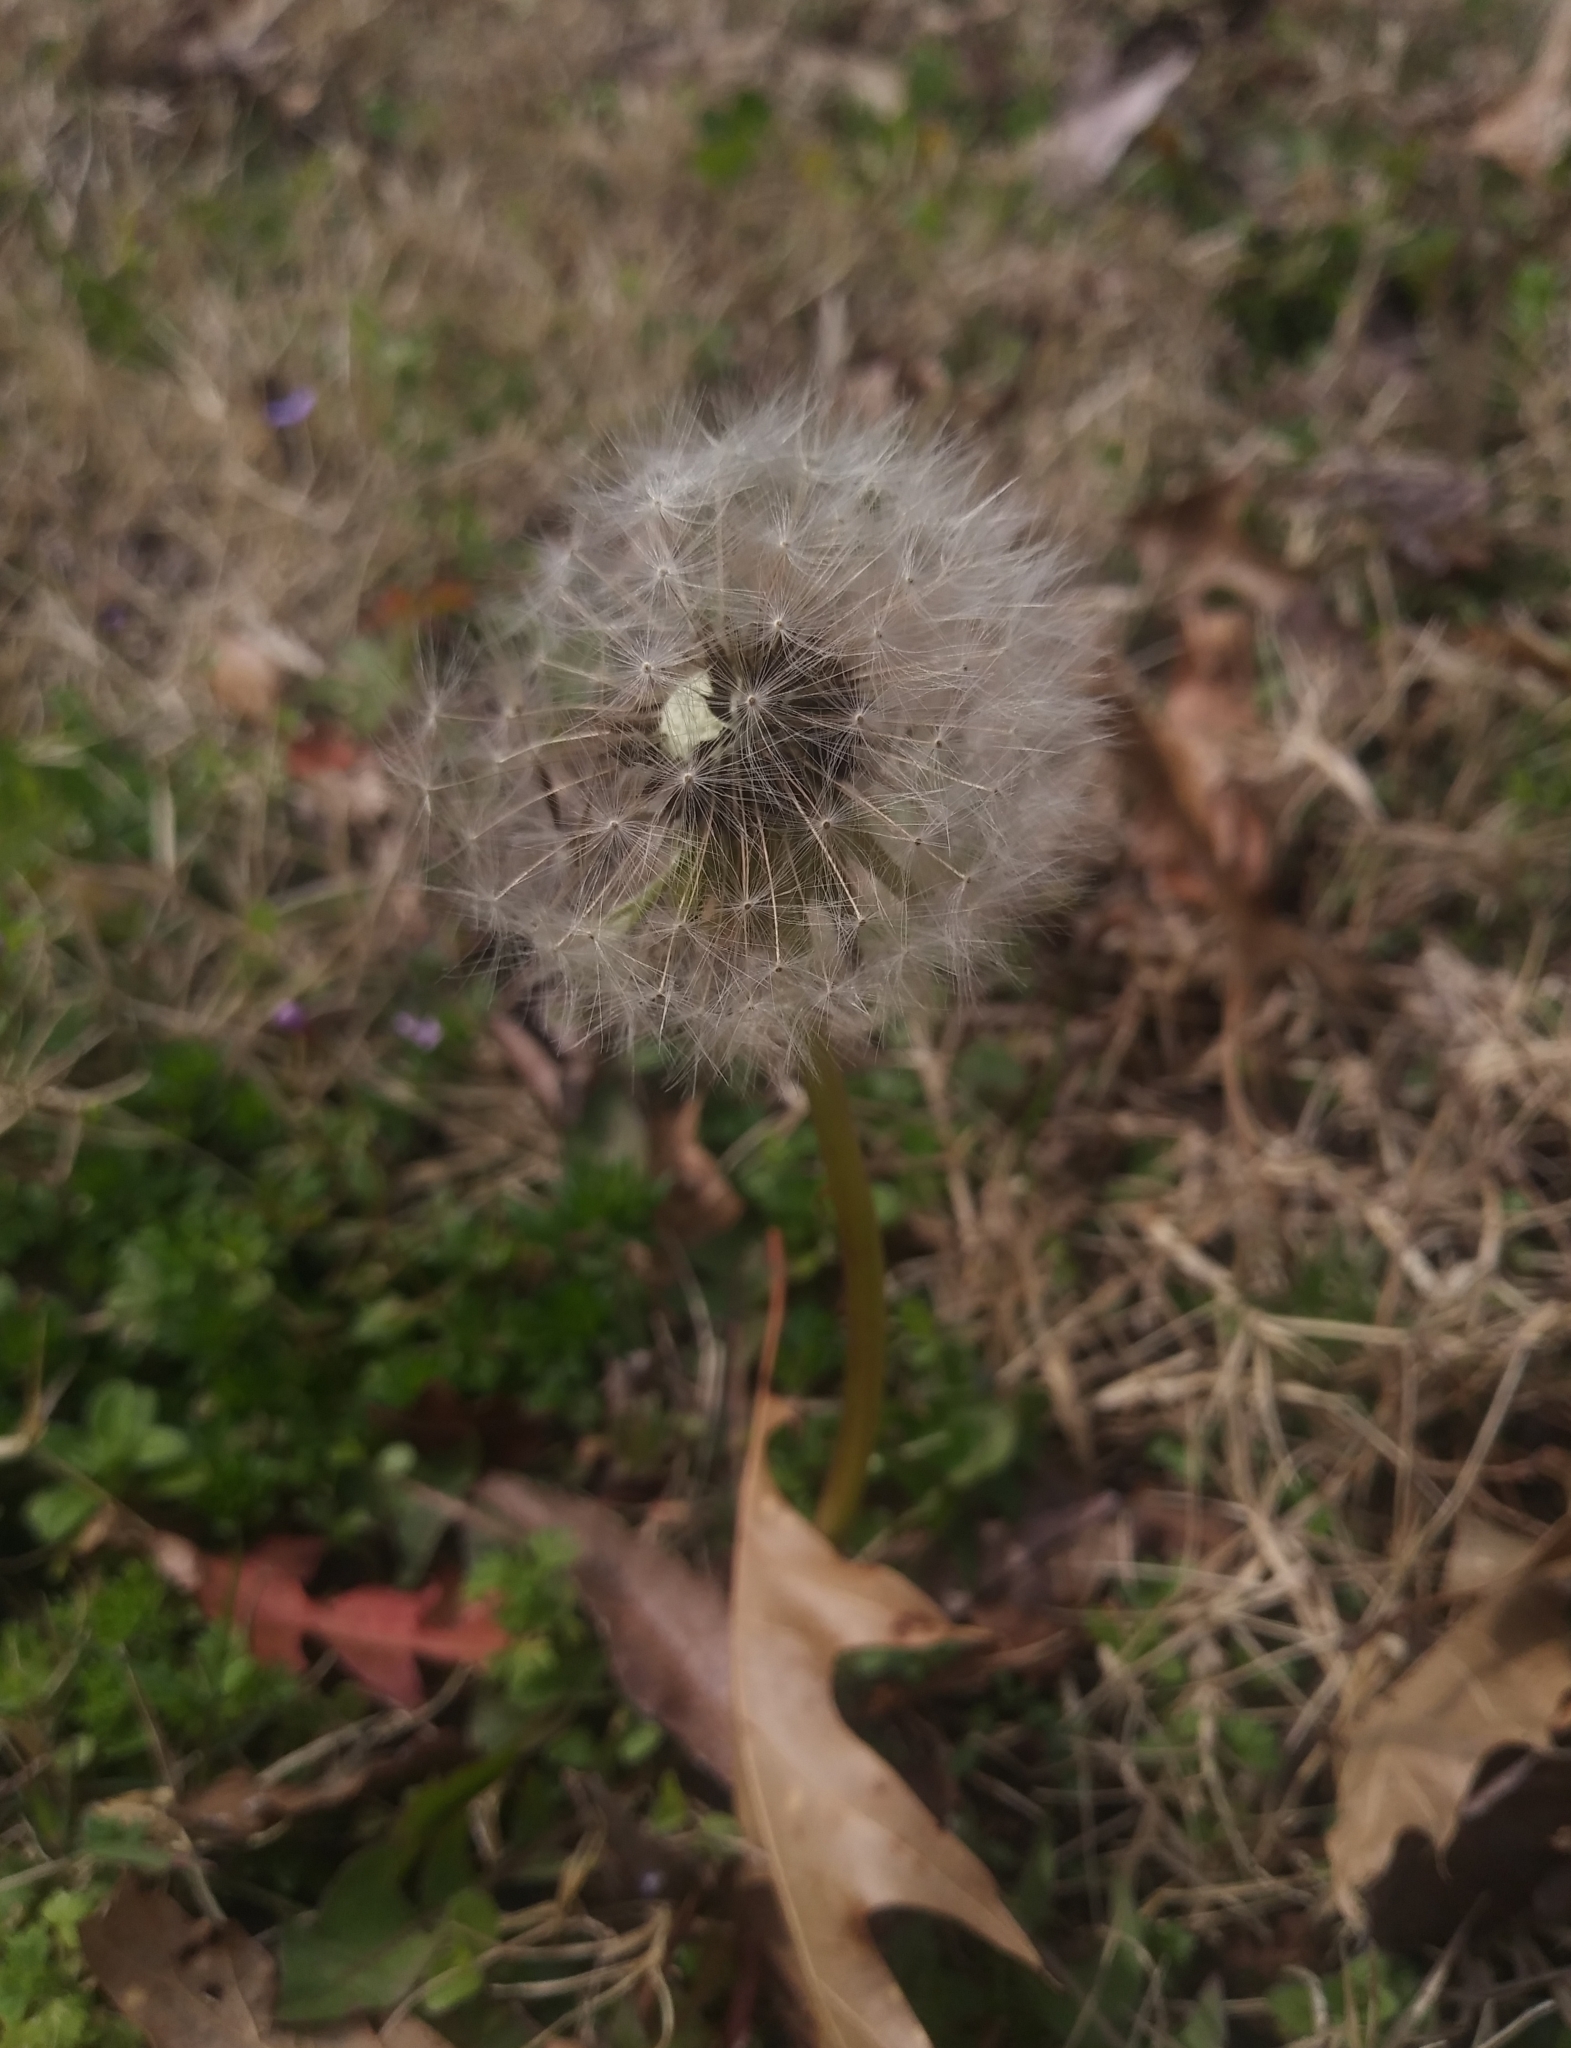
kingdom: Plantae
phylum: Tracheophyta
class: Magnoliopsida
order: Asterales
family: Asteraceae
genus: Taraxacum
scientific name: Taraxacum officinale
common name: Common dandelion
